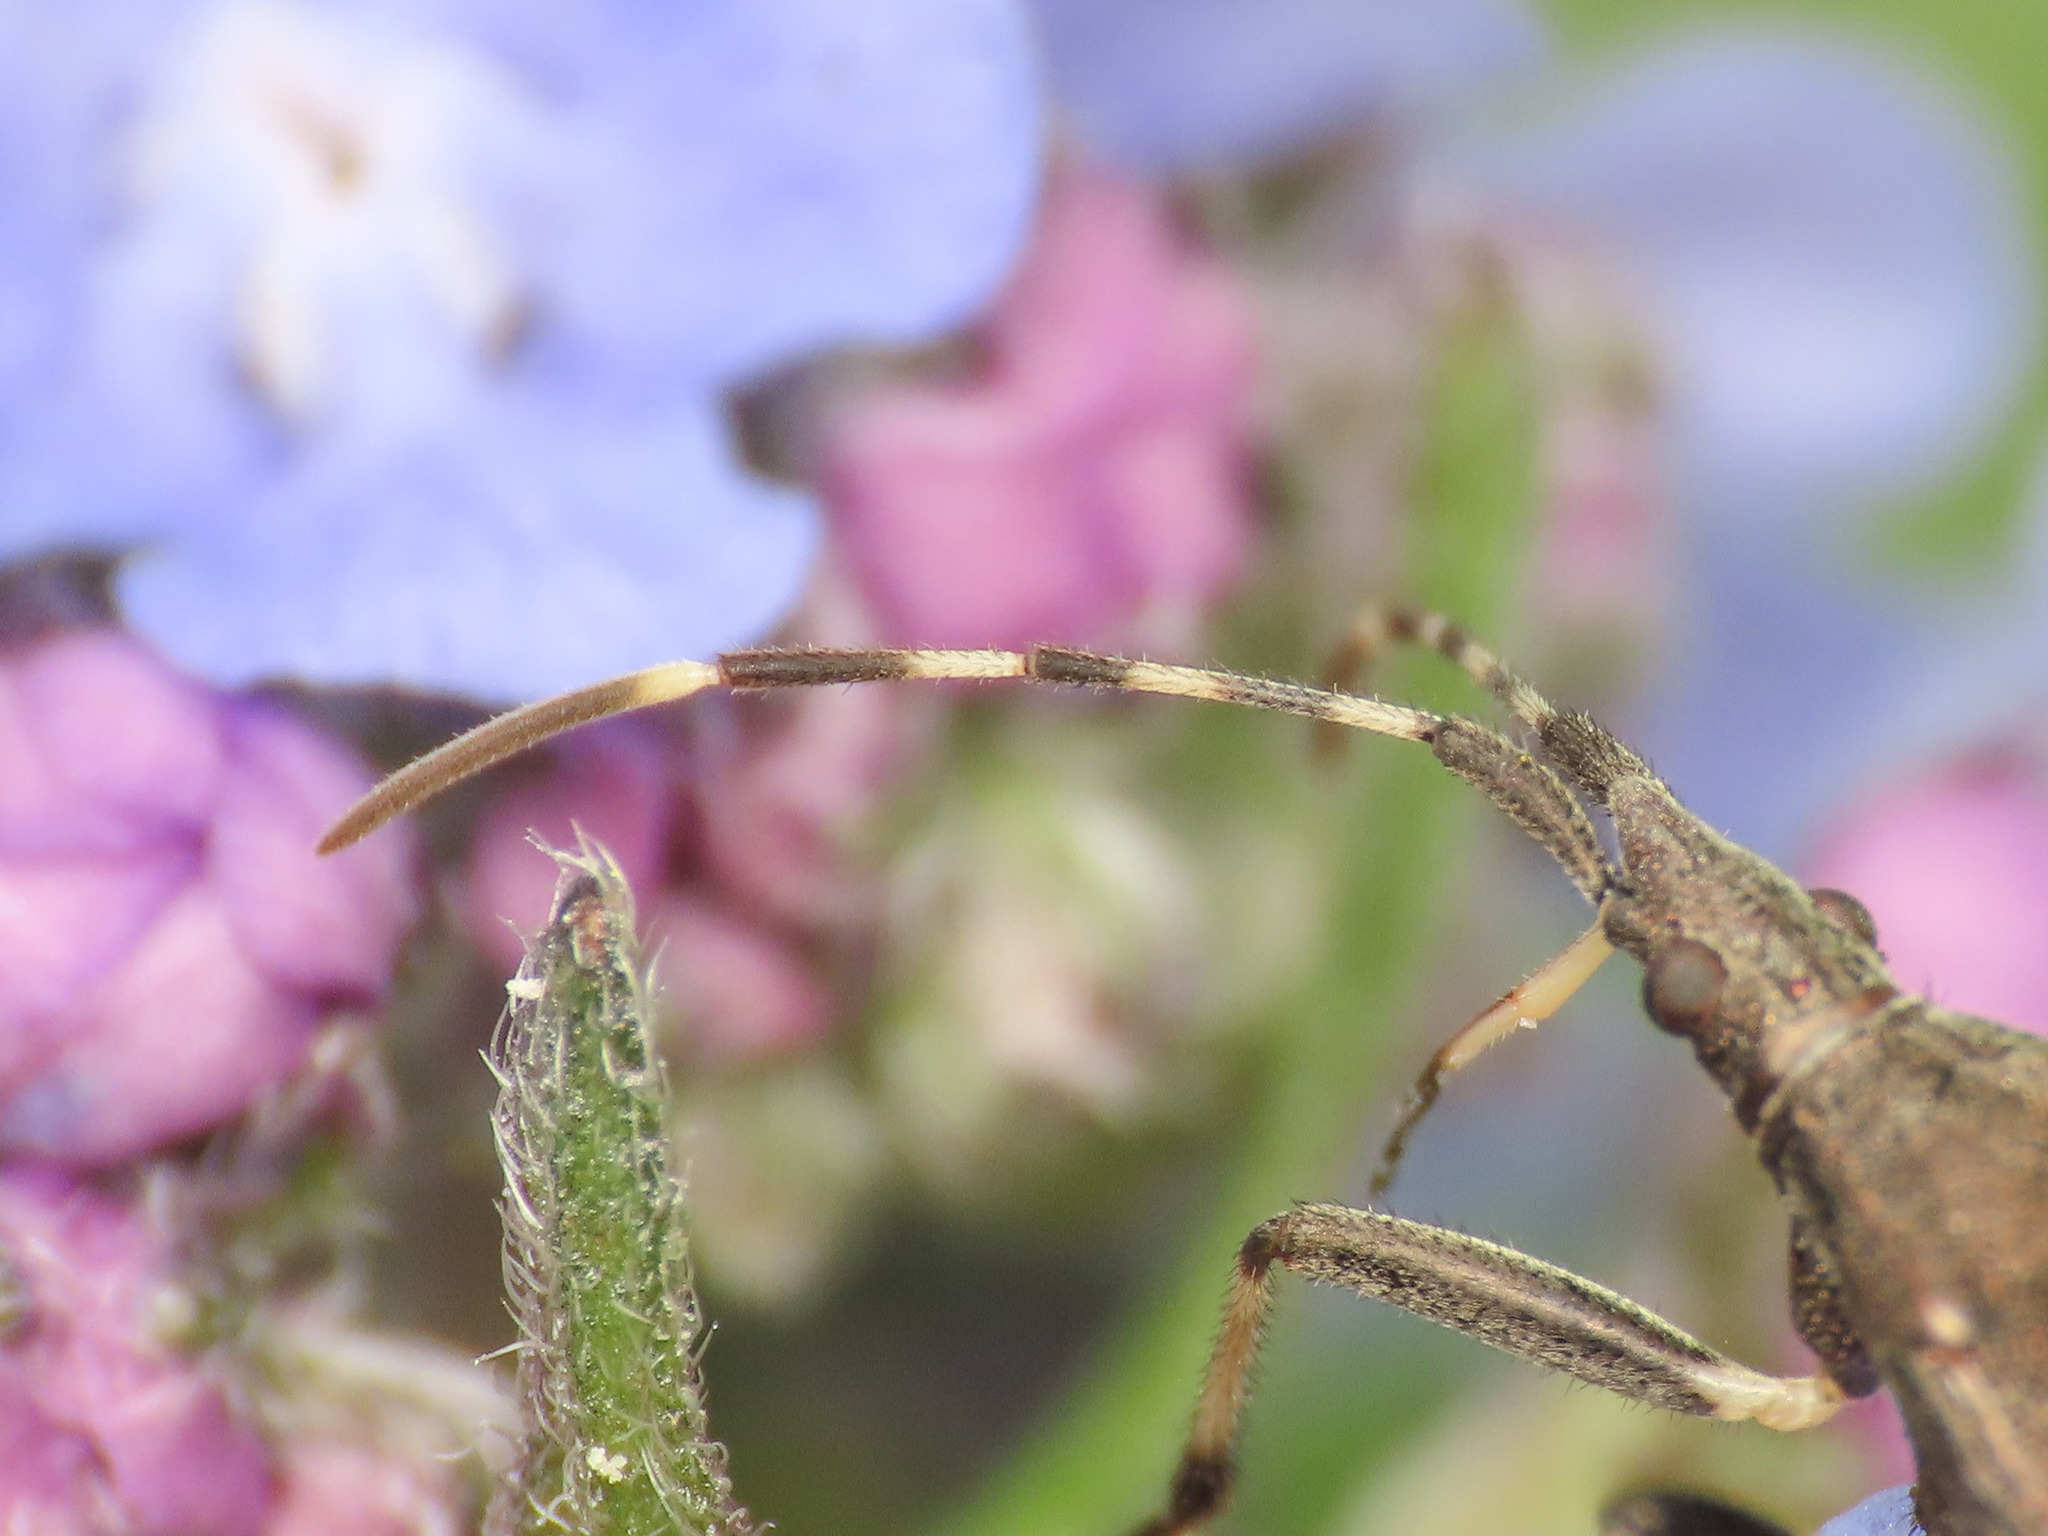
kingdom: Animalia
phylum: Arthropoda
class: Insecta
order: Hemiptera
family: Stenocephalidae
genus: Dicranocephalus
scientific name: Dicranocephalus agilis
